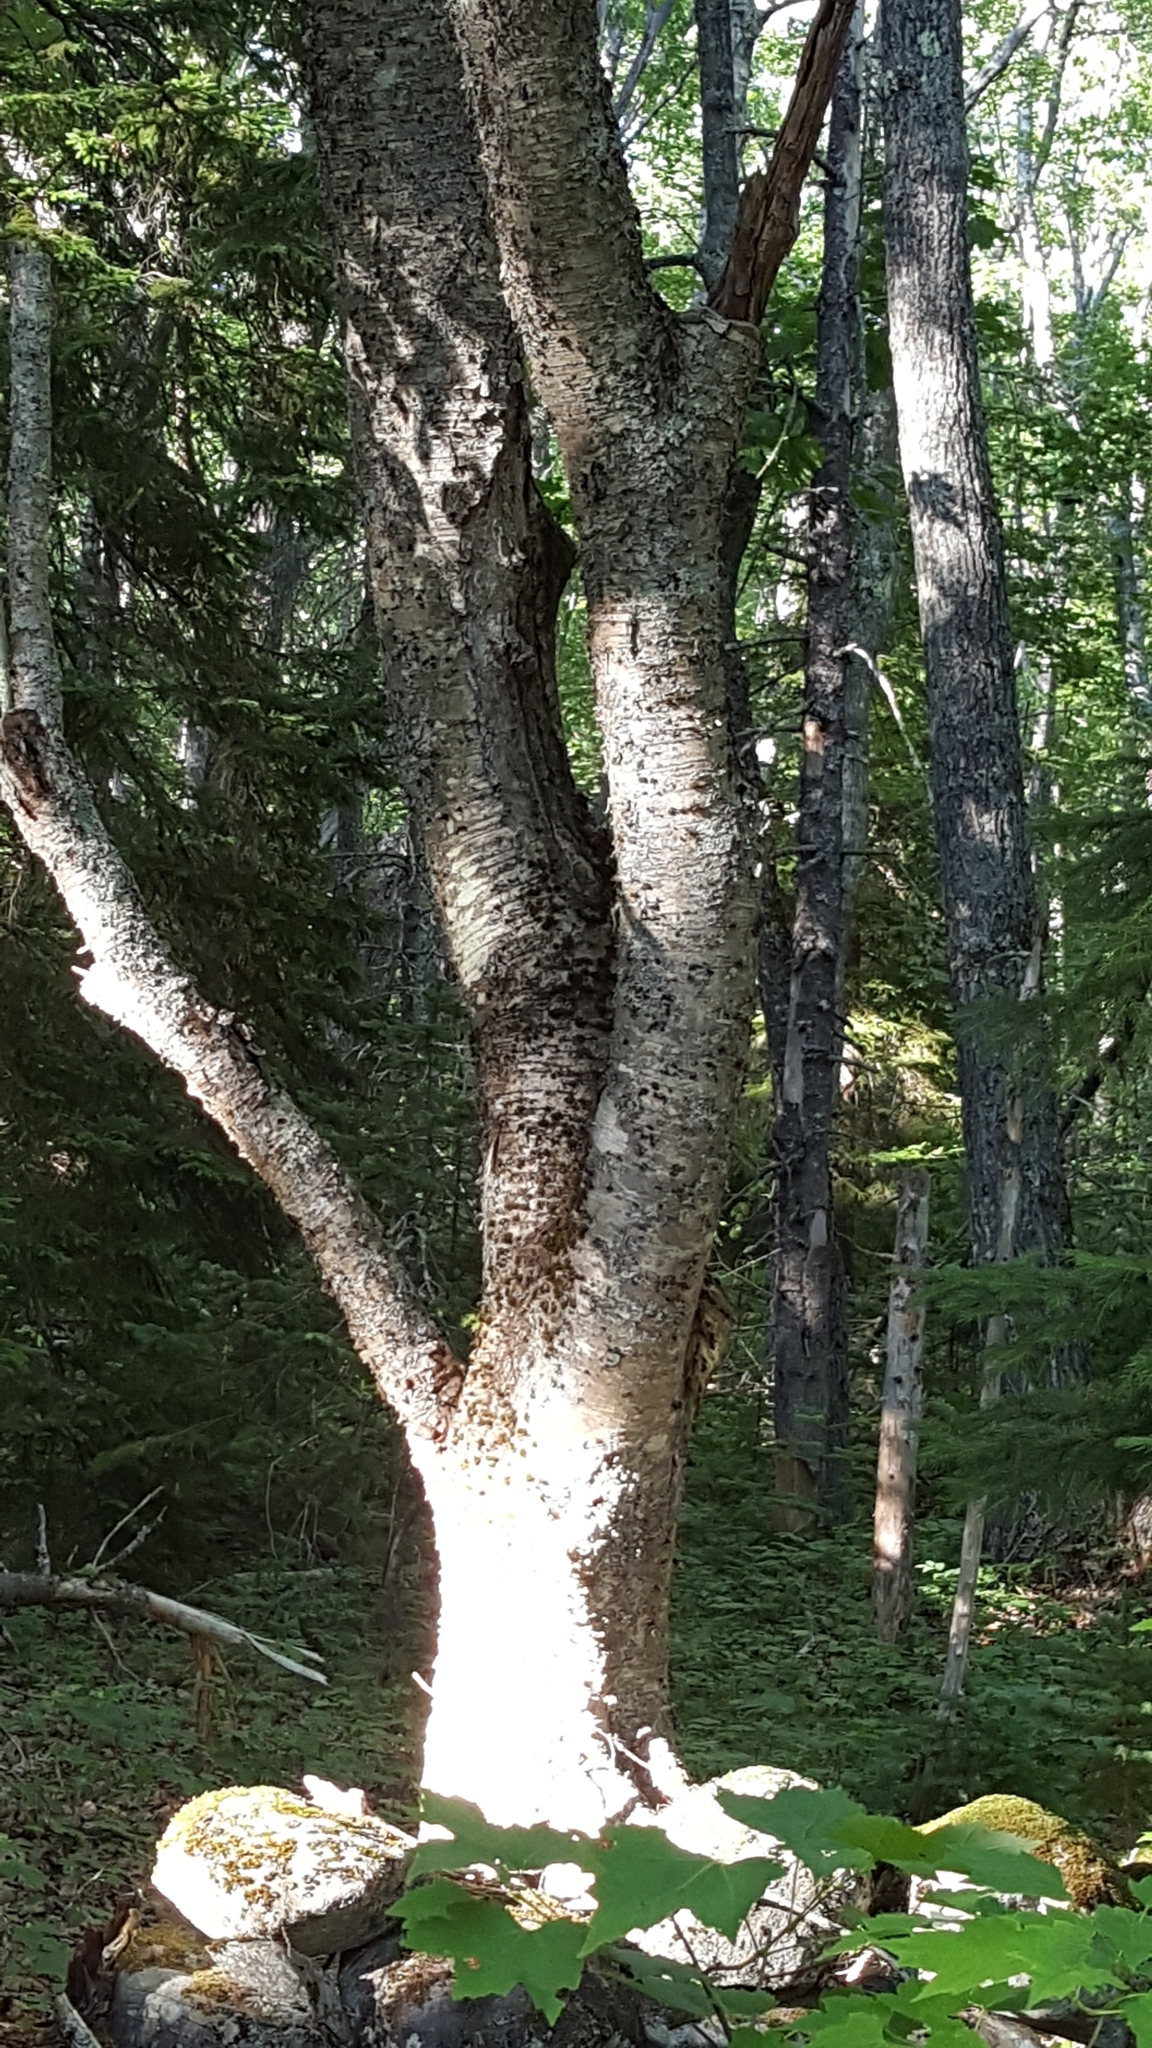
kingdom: Plantae
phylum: Tracheophyta
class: Magnoliopsida
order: Fagales
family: Betulaceae
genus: Betula
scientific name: Betula alleghaniensis
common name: Yellow birch
